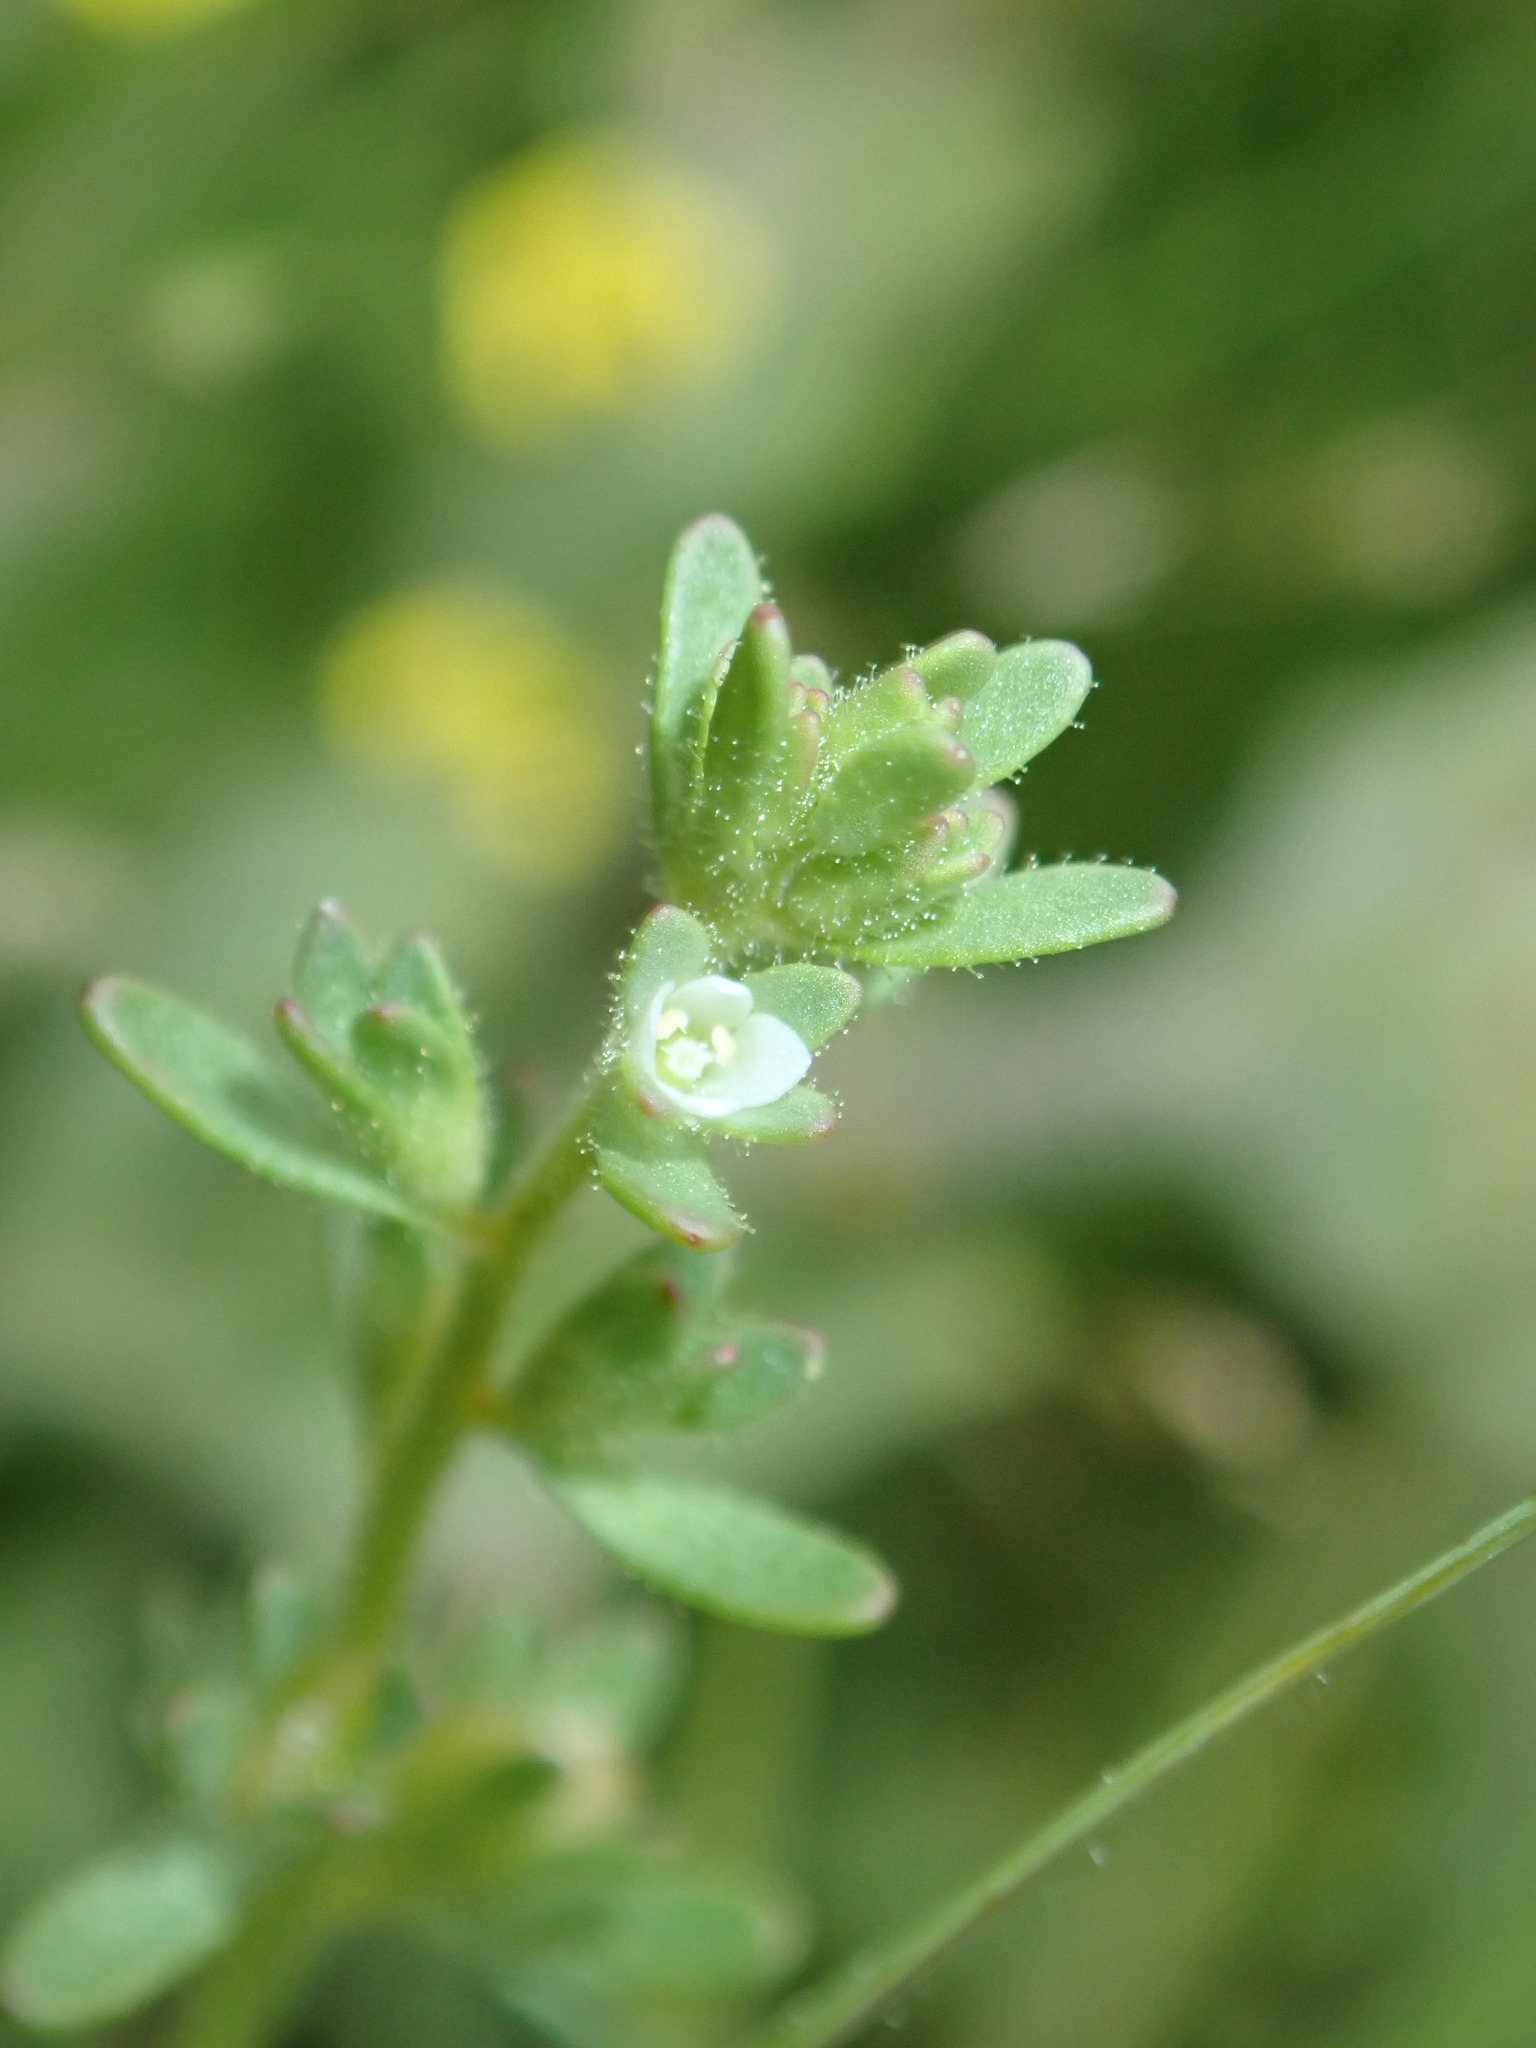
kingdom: Plantae
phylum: Tracheophyta
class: Magnoliopsida
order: Lamiales
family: Plantaginaceae
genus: Veronica
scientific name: Veronica peregrina
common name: Neckweed
